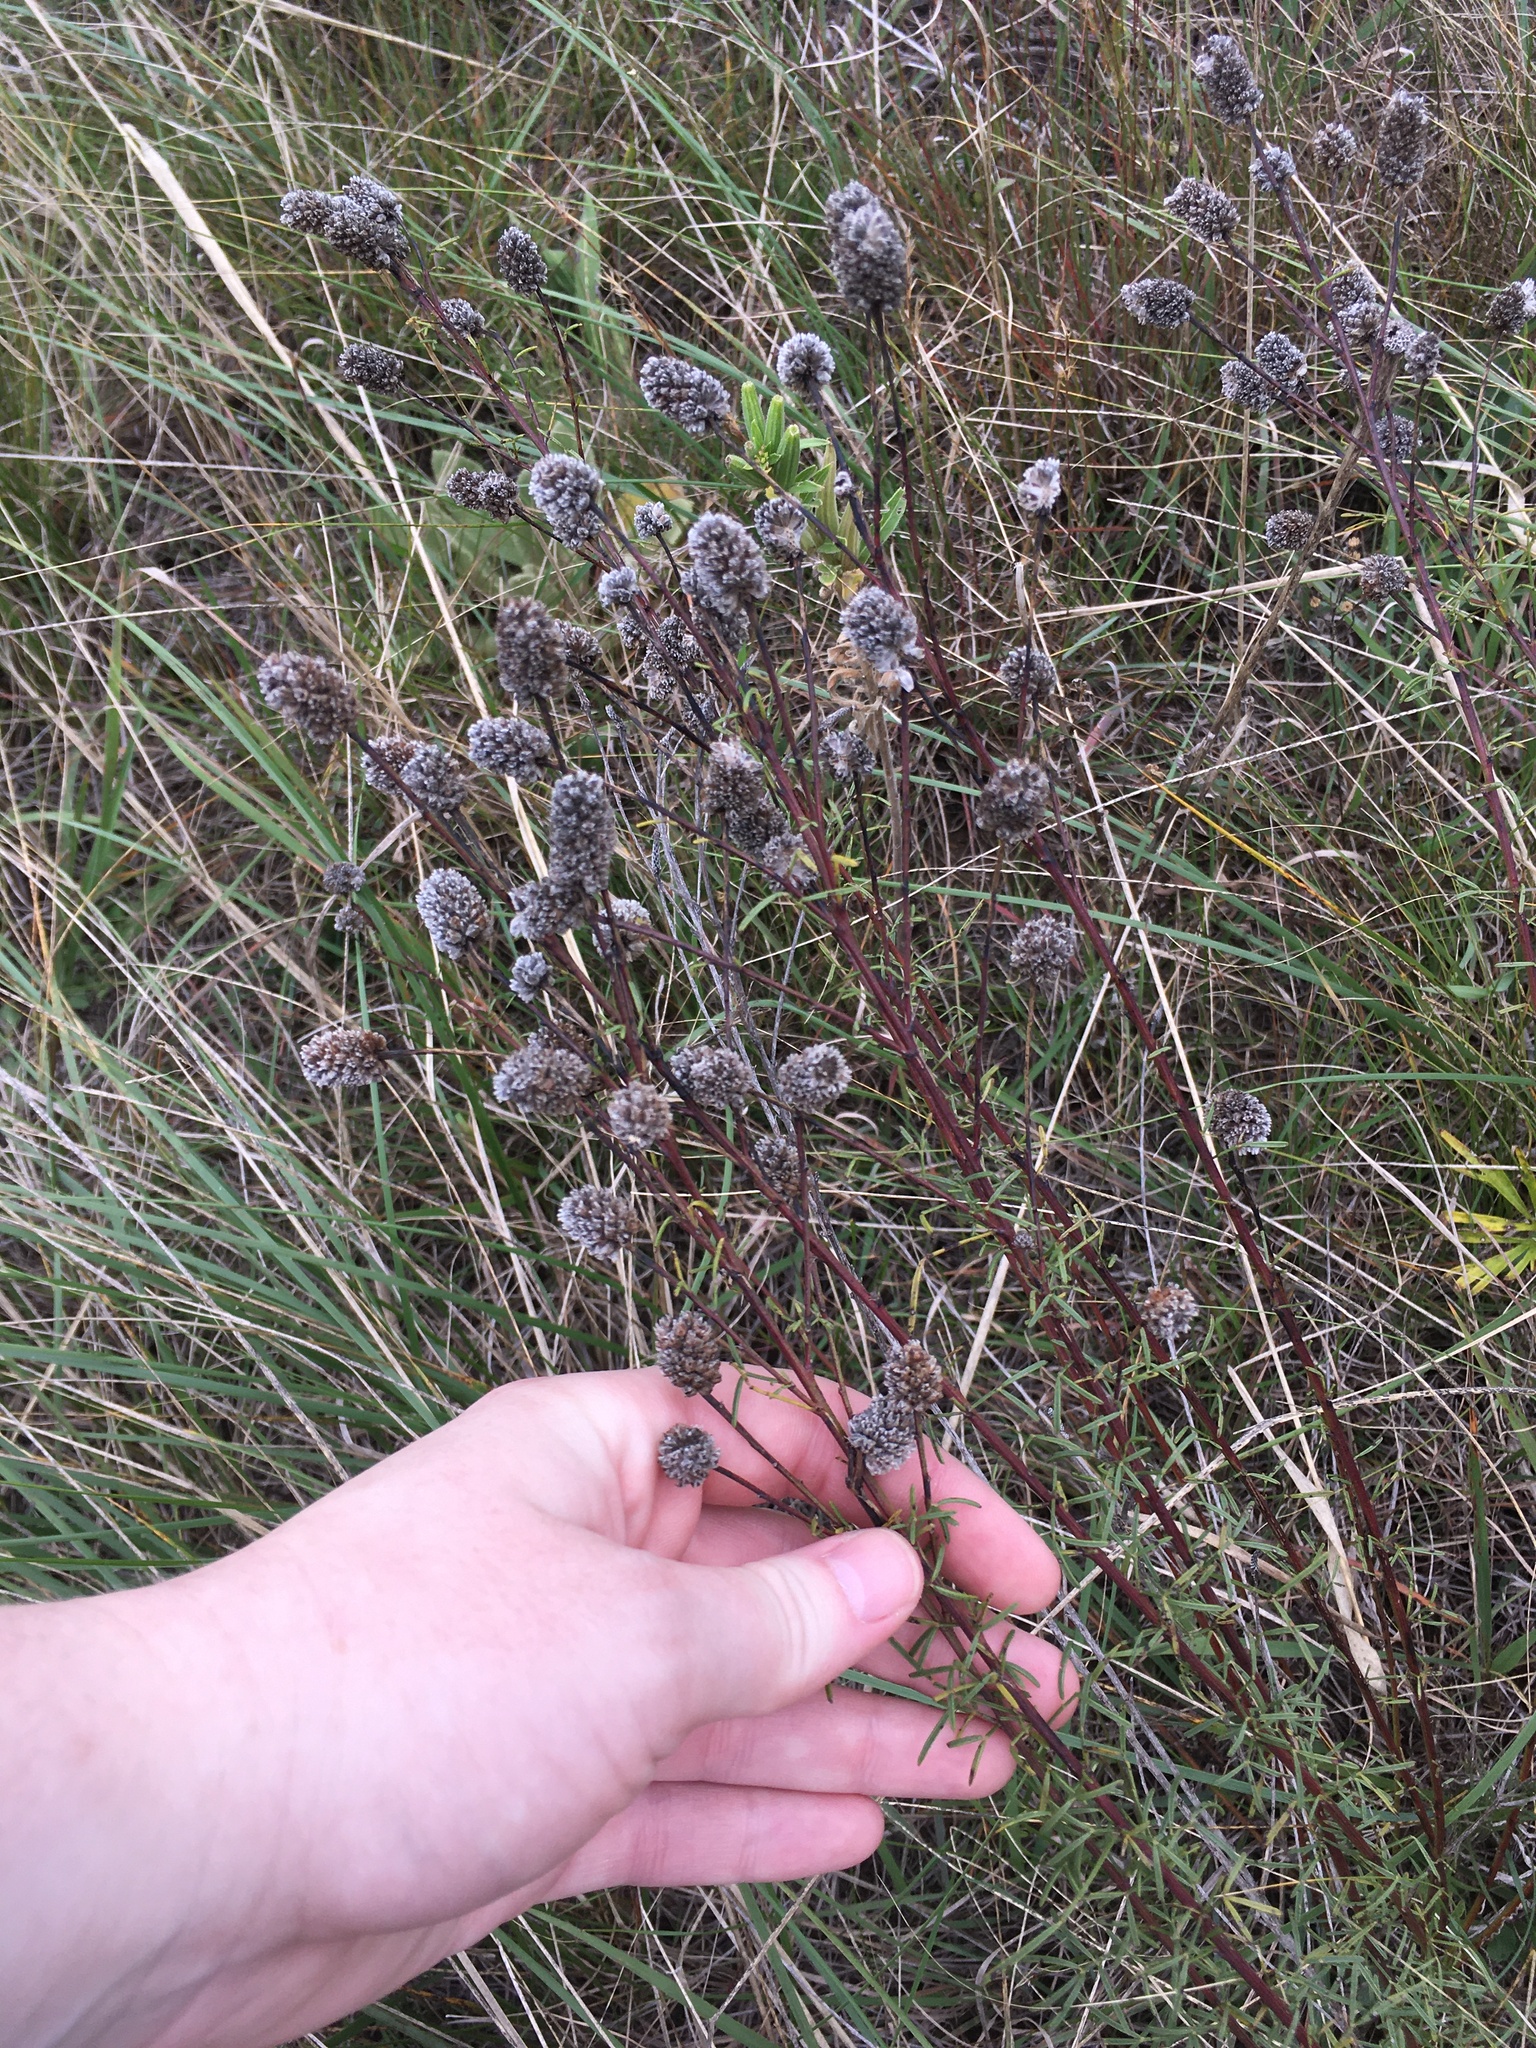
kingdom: Plantae
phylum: Tracheophyta
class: Magnoliopsida
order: Fabales
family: Fabaceae
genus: Dalea
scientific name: Dalea purpurea
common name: Purple prairie-clover
